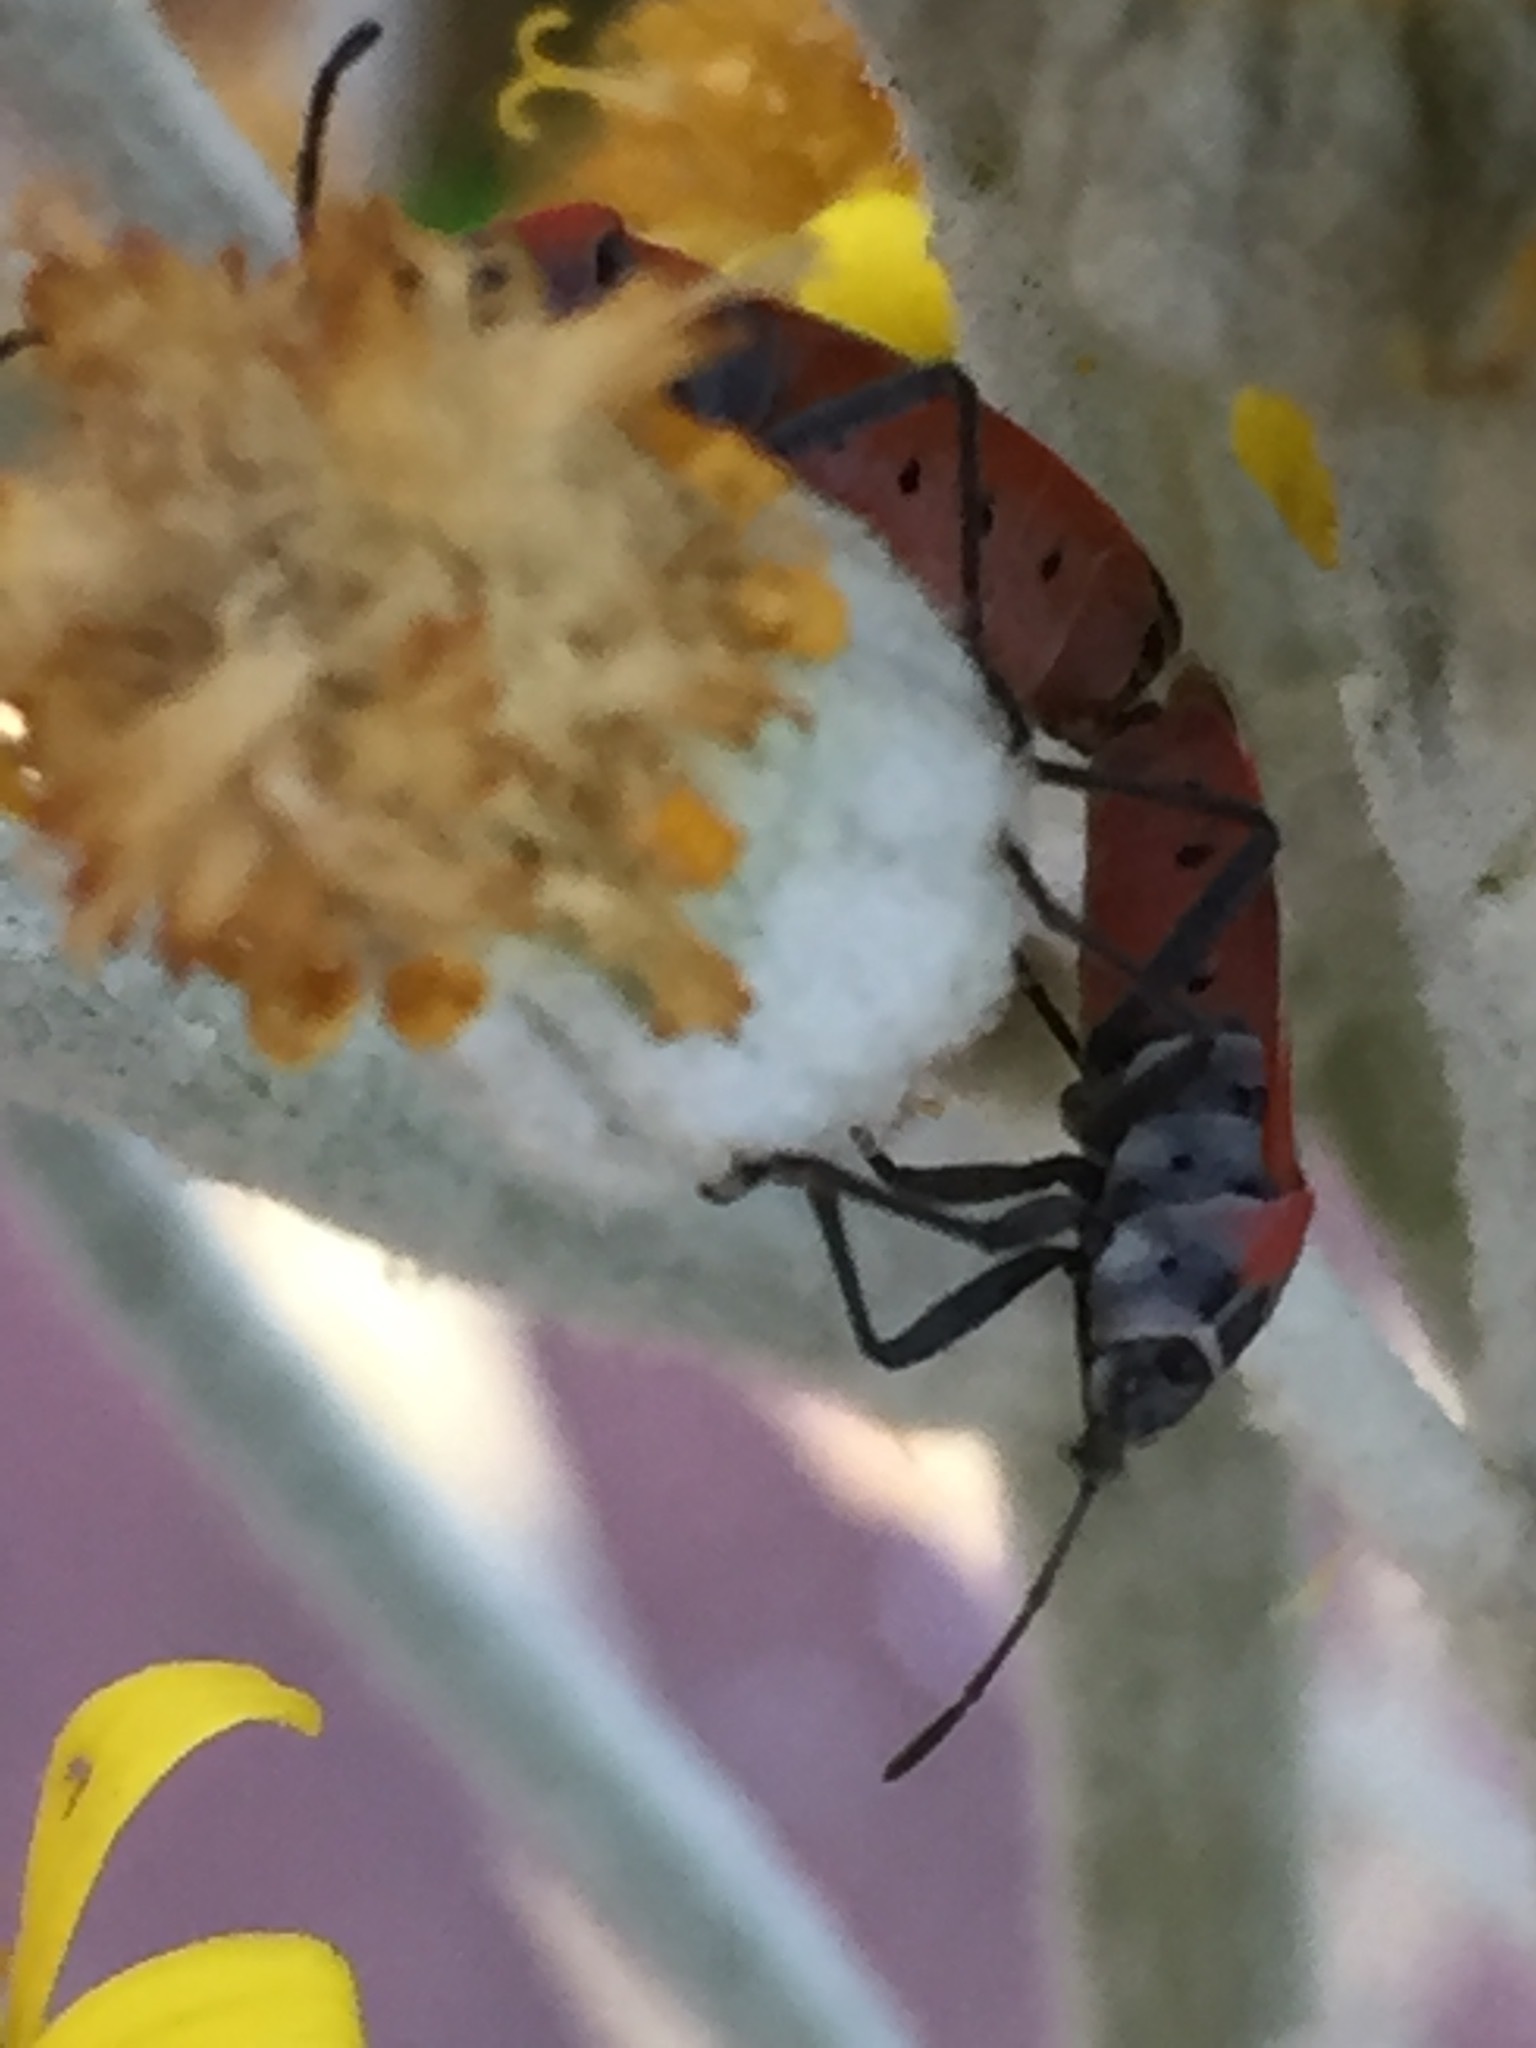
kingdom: Animalia
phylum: Arthropoda
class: Insecta
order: Hemiptera
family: Lygaeidae
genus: Neacoryphus
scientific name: Neacoryphus bicrucis
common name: Lygaeid bug
